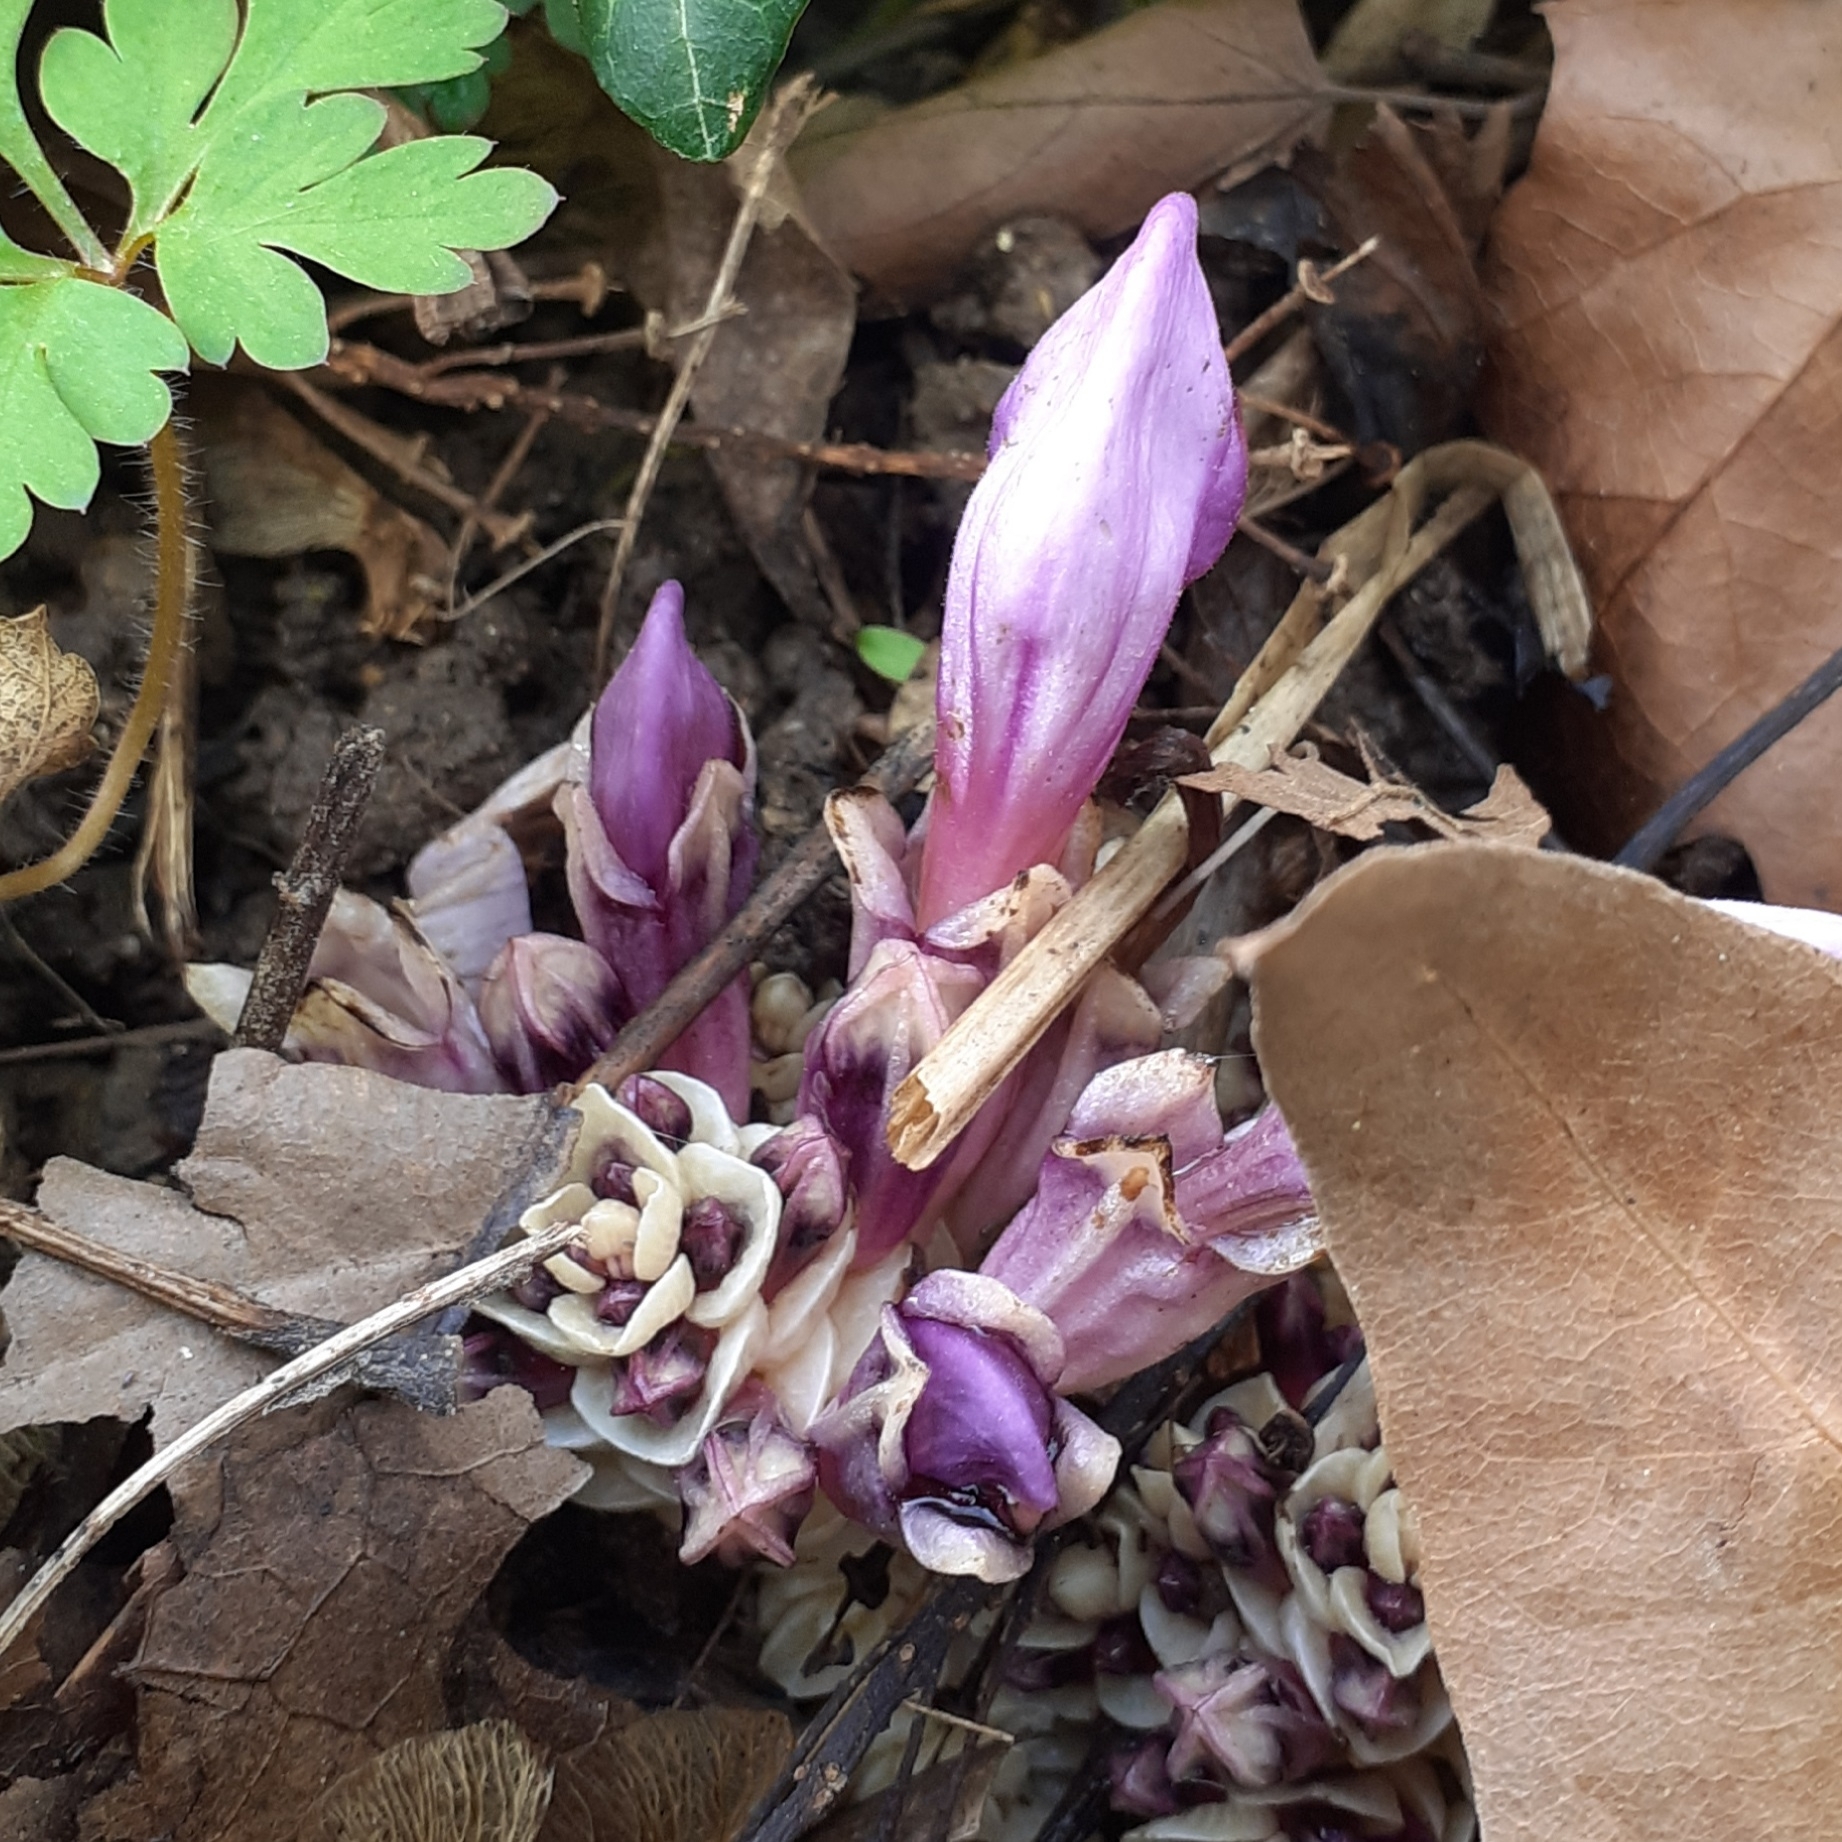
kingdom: Plantae
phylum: Tracheophyta
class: Magnoliopsida
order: Lamiales
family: Orobanchaceae
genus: Lathraea
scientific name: Lathraea clandestina
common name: Purple toothwort
